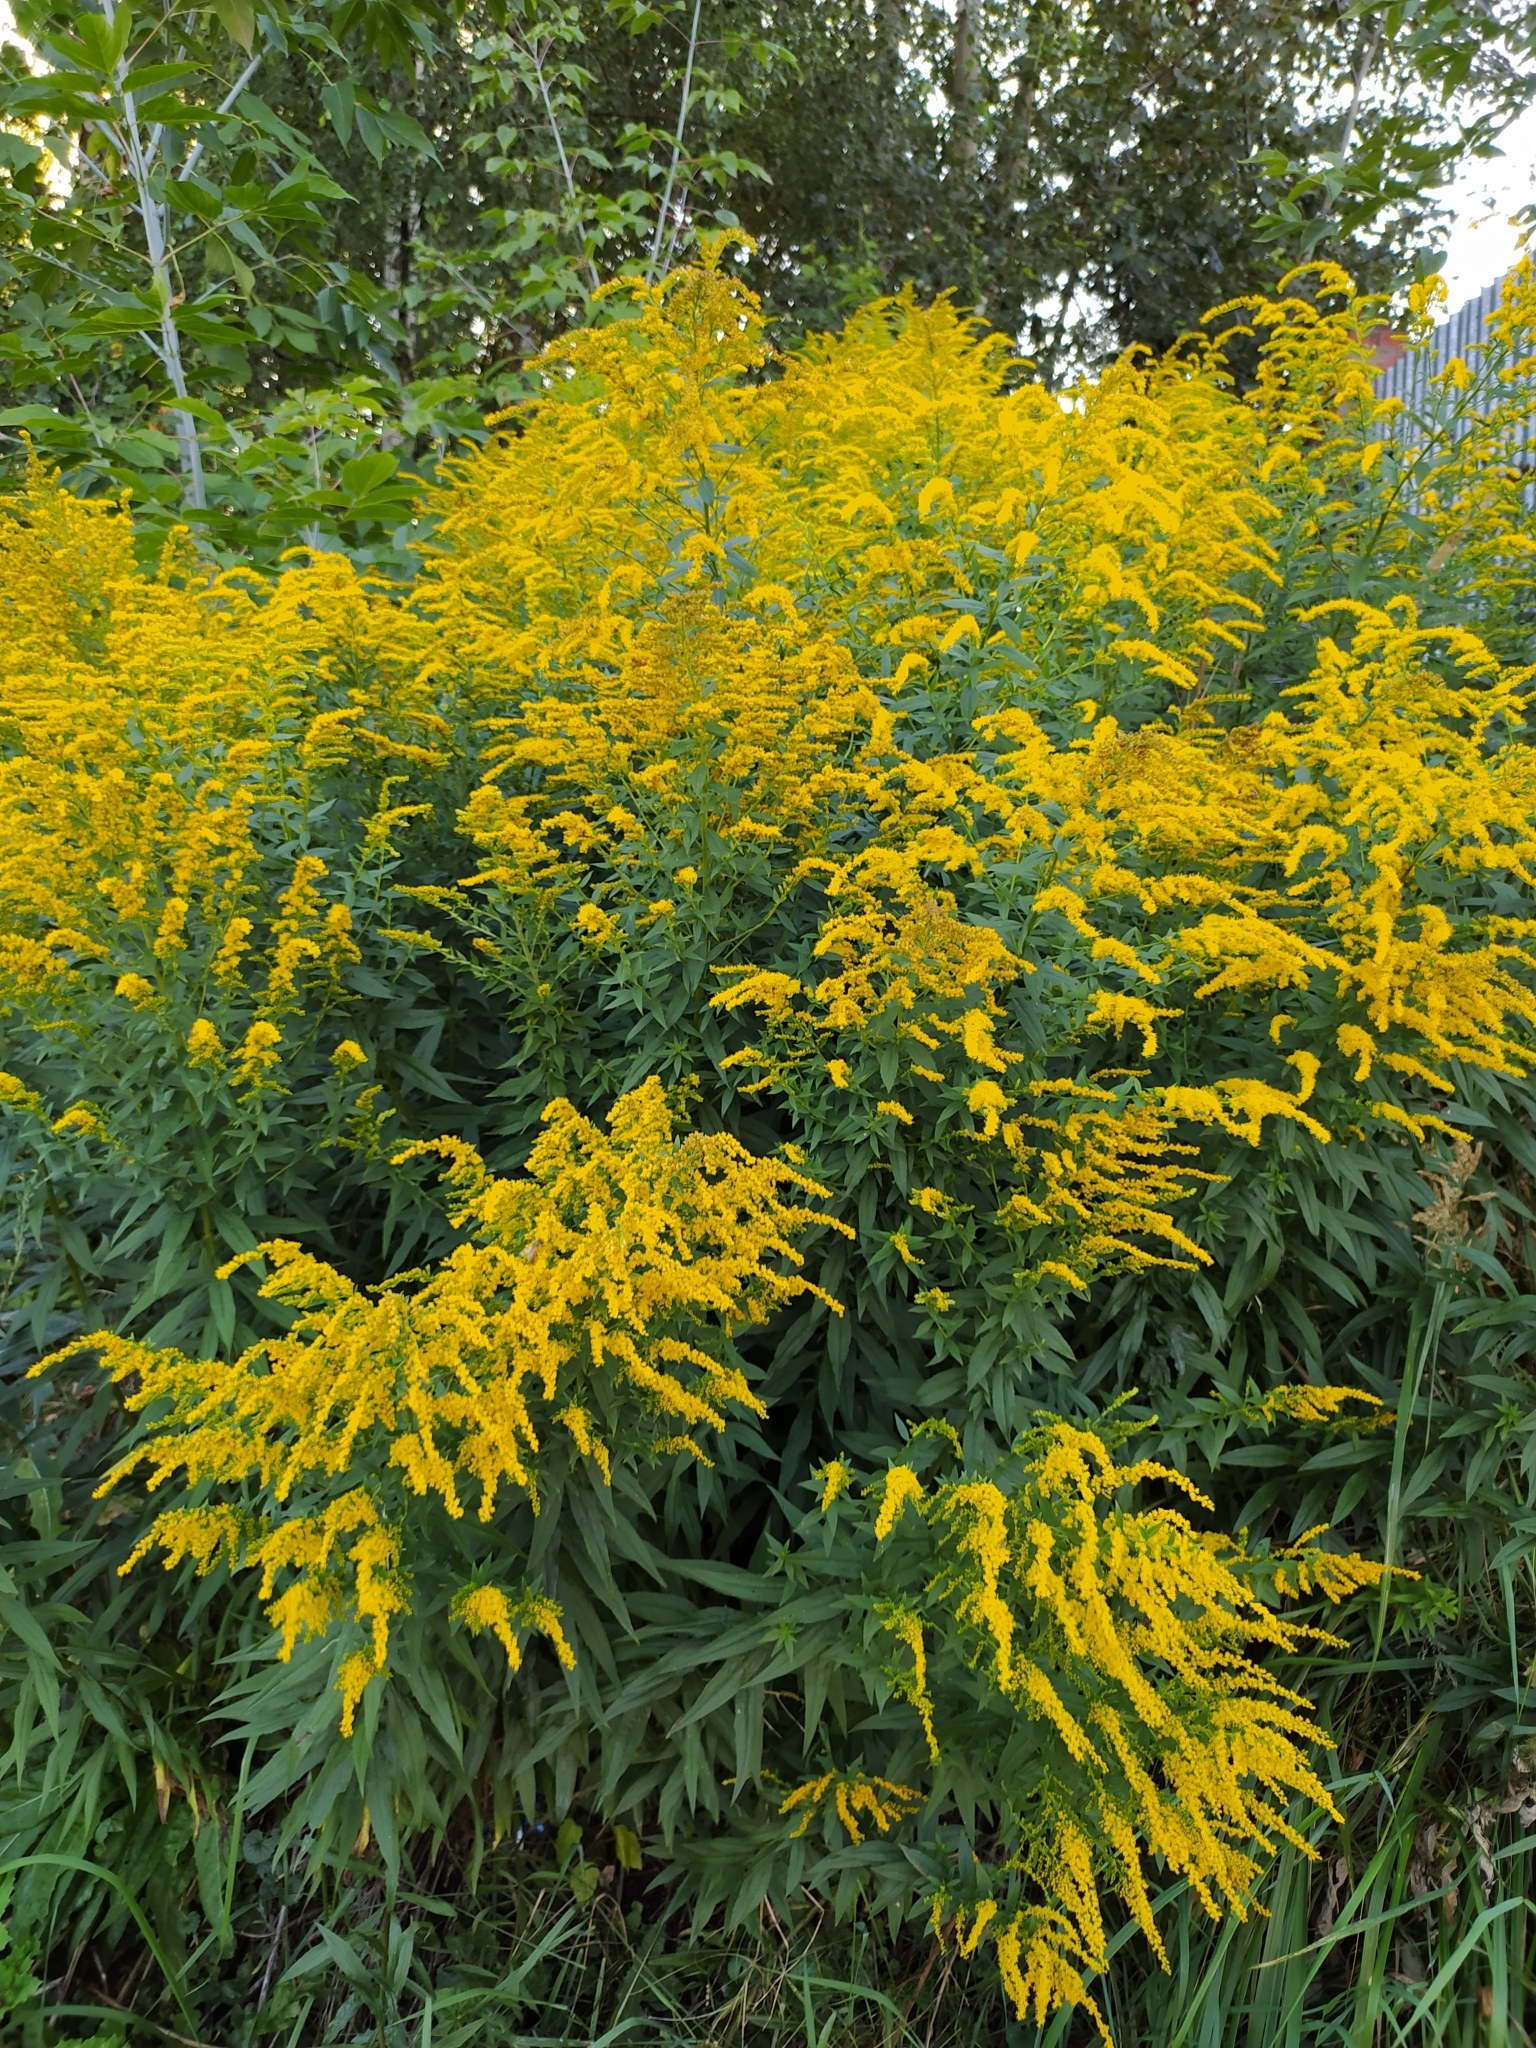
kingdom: Plantae
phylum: Tracheophyta
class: Magnoliopsida
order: Asterales
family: Asteraceae
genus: Solidago
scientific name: Solidago canadensis
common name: Canada goldenrod
